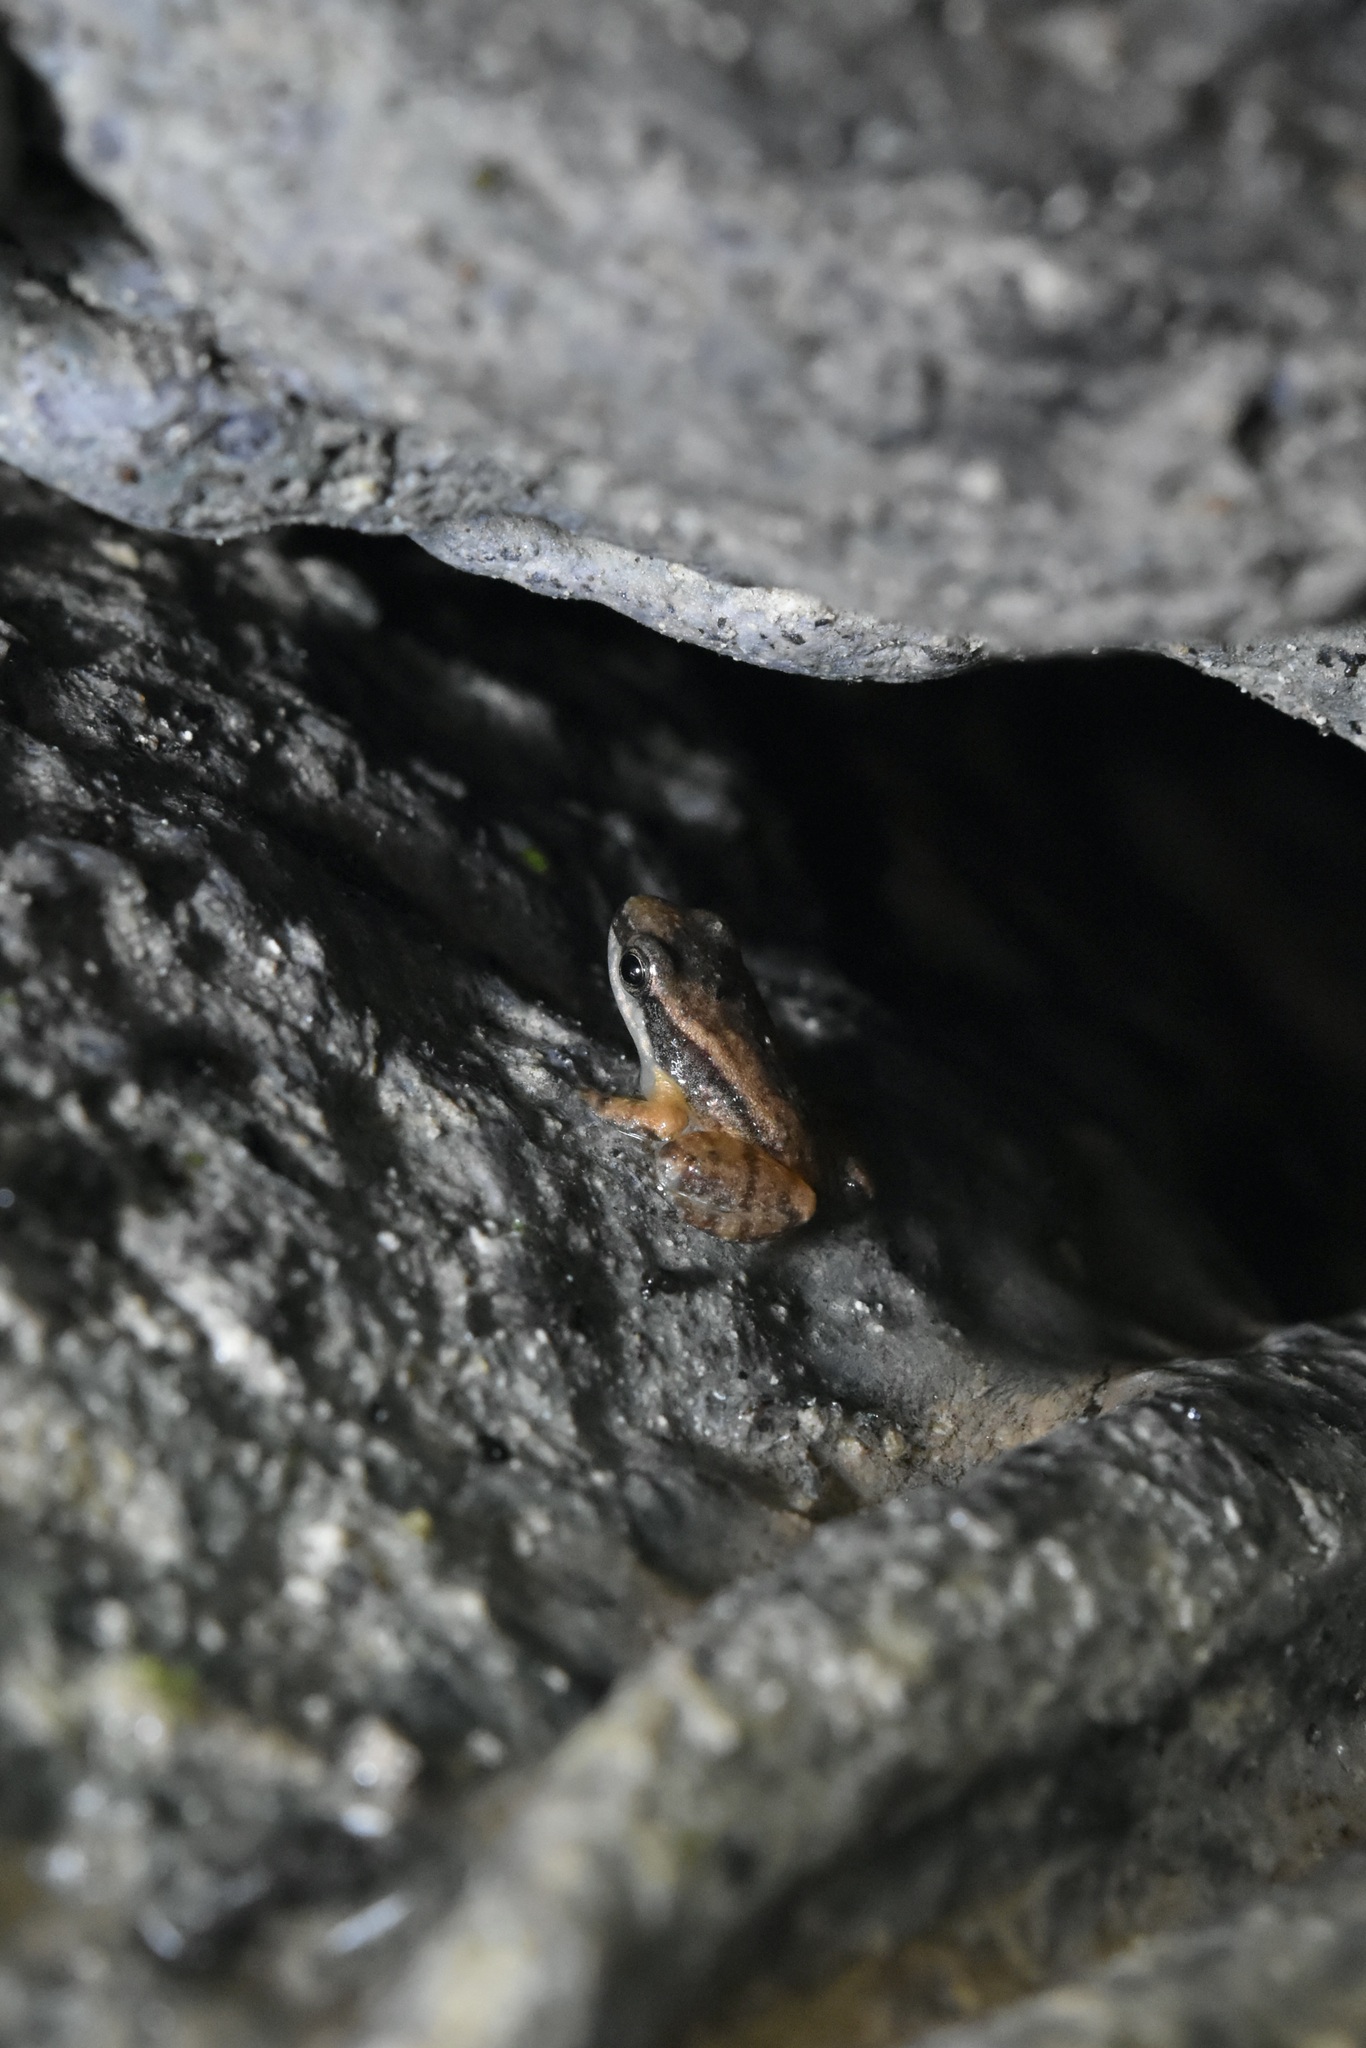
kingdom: Animalia
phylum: Chordata
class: Amphibia
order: Anura
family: Aromobatidae
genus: Mannophryne
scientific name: Mannophryne trinitatis
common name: Trinidad poison frog
